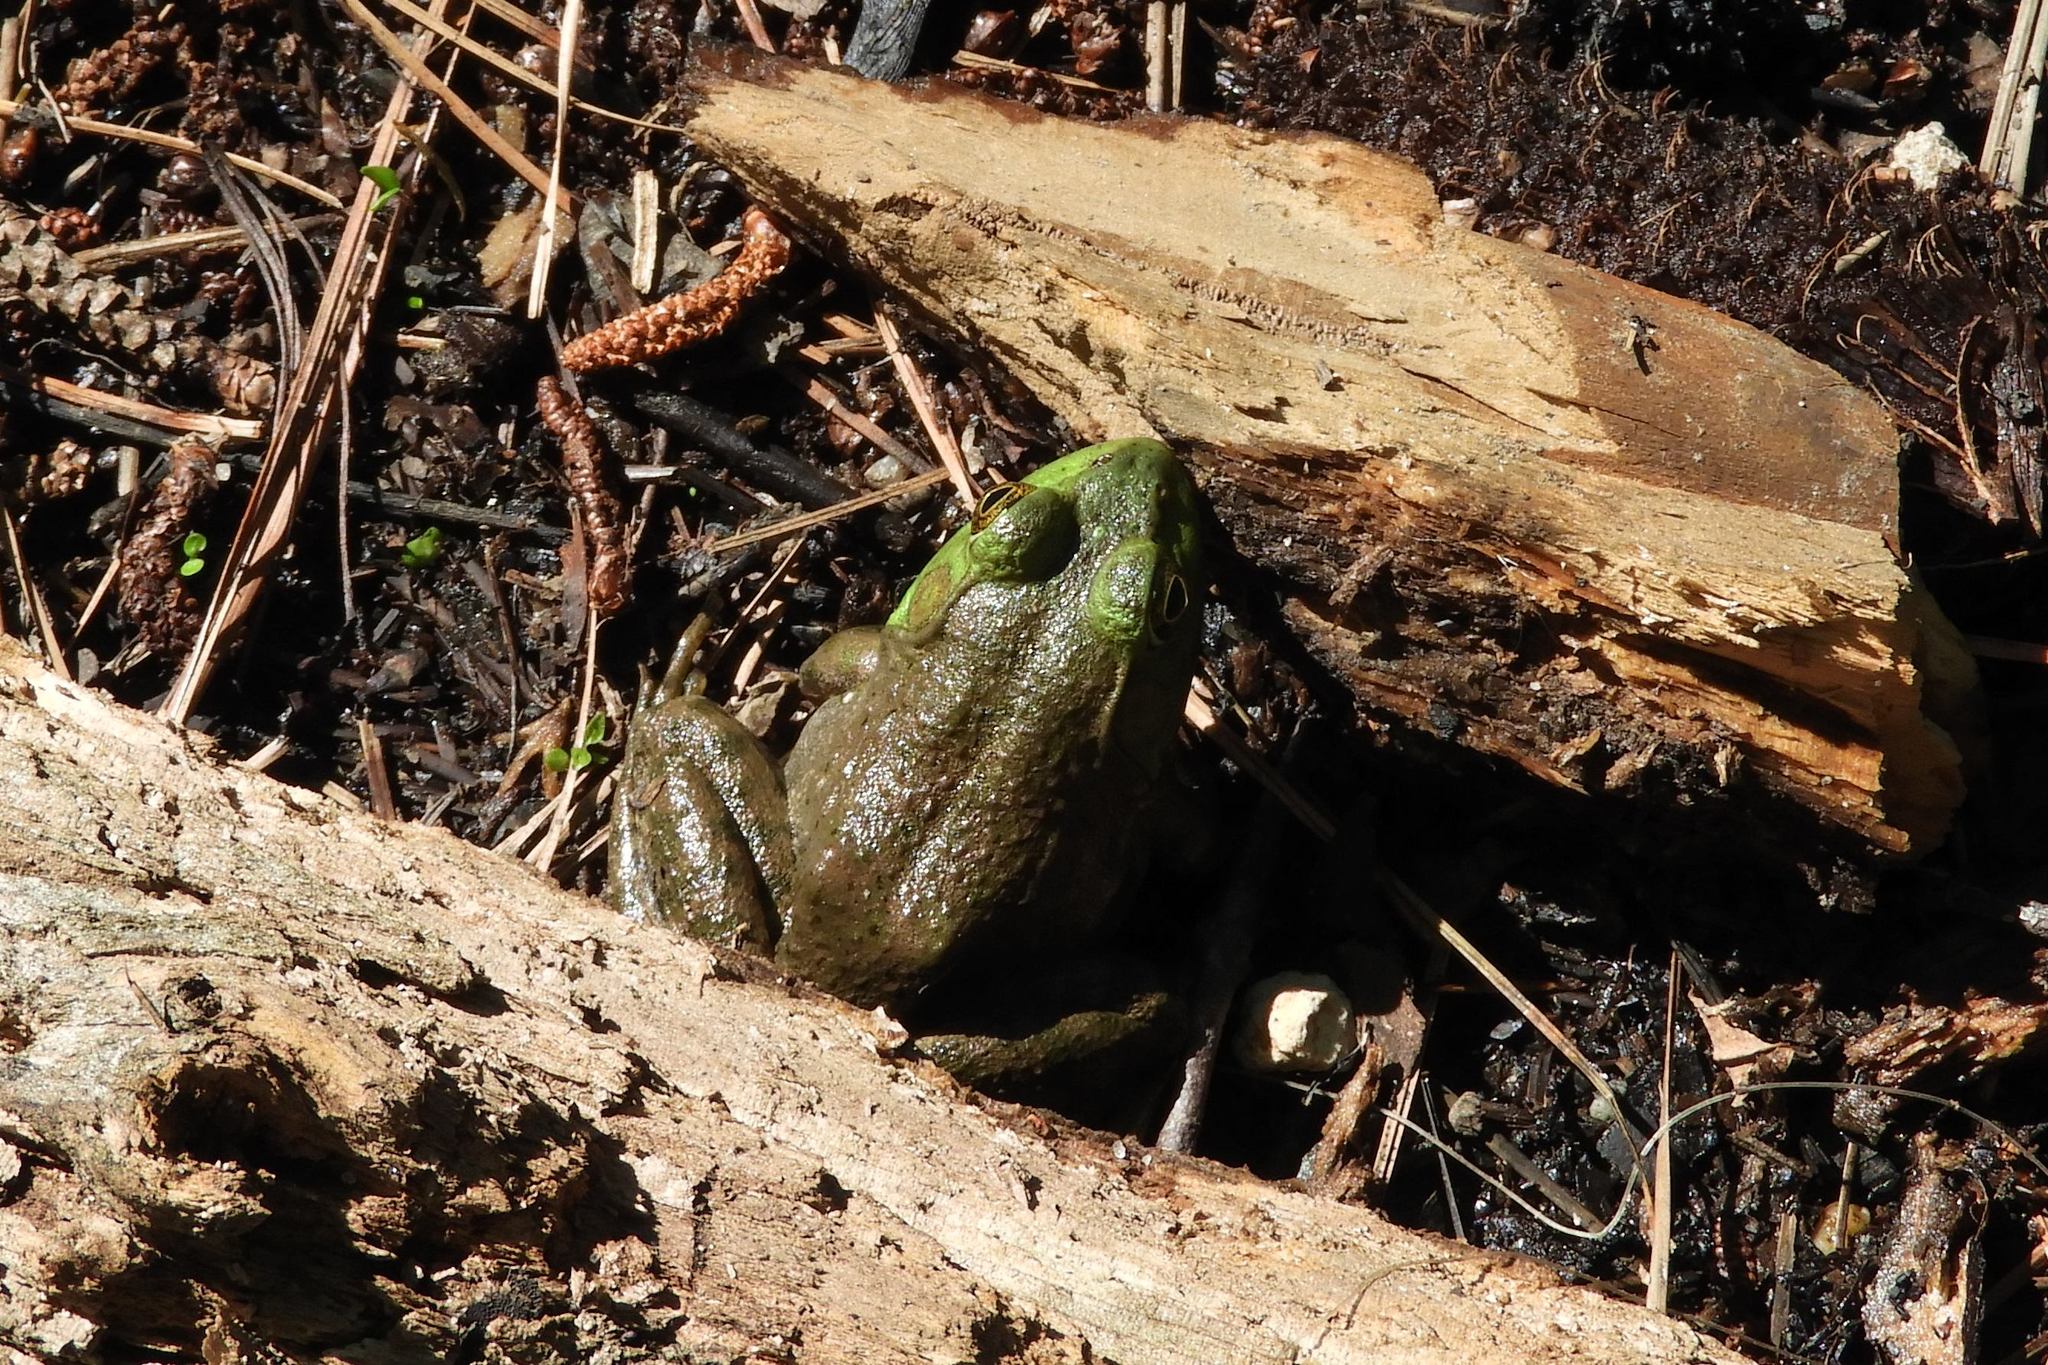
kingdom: Animalia
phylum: Chordata
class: Amphibia
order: Anura
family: Ranidae
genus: Lithobates
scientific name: Lithobates catesbeianus
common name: American bullfrog
